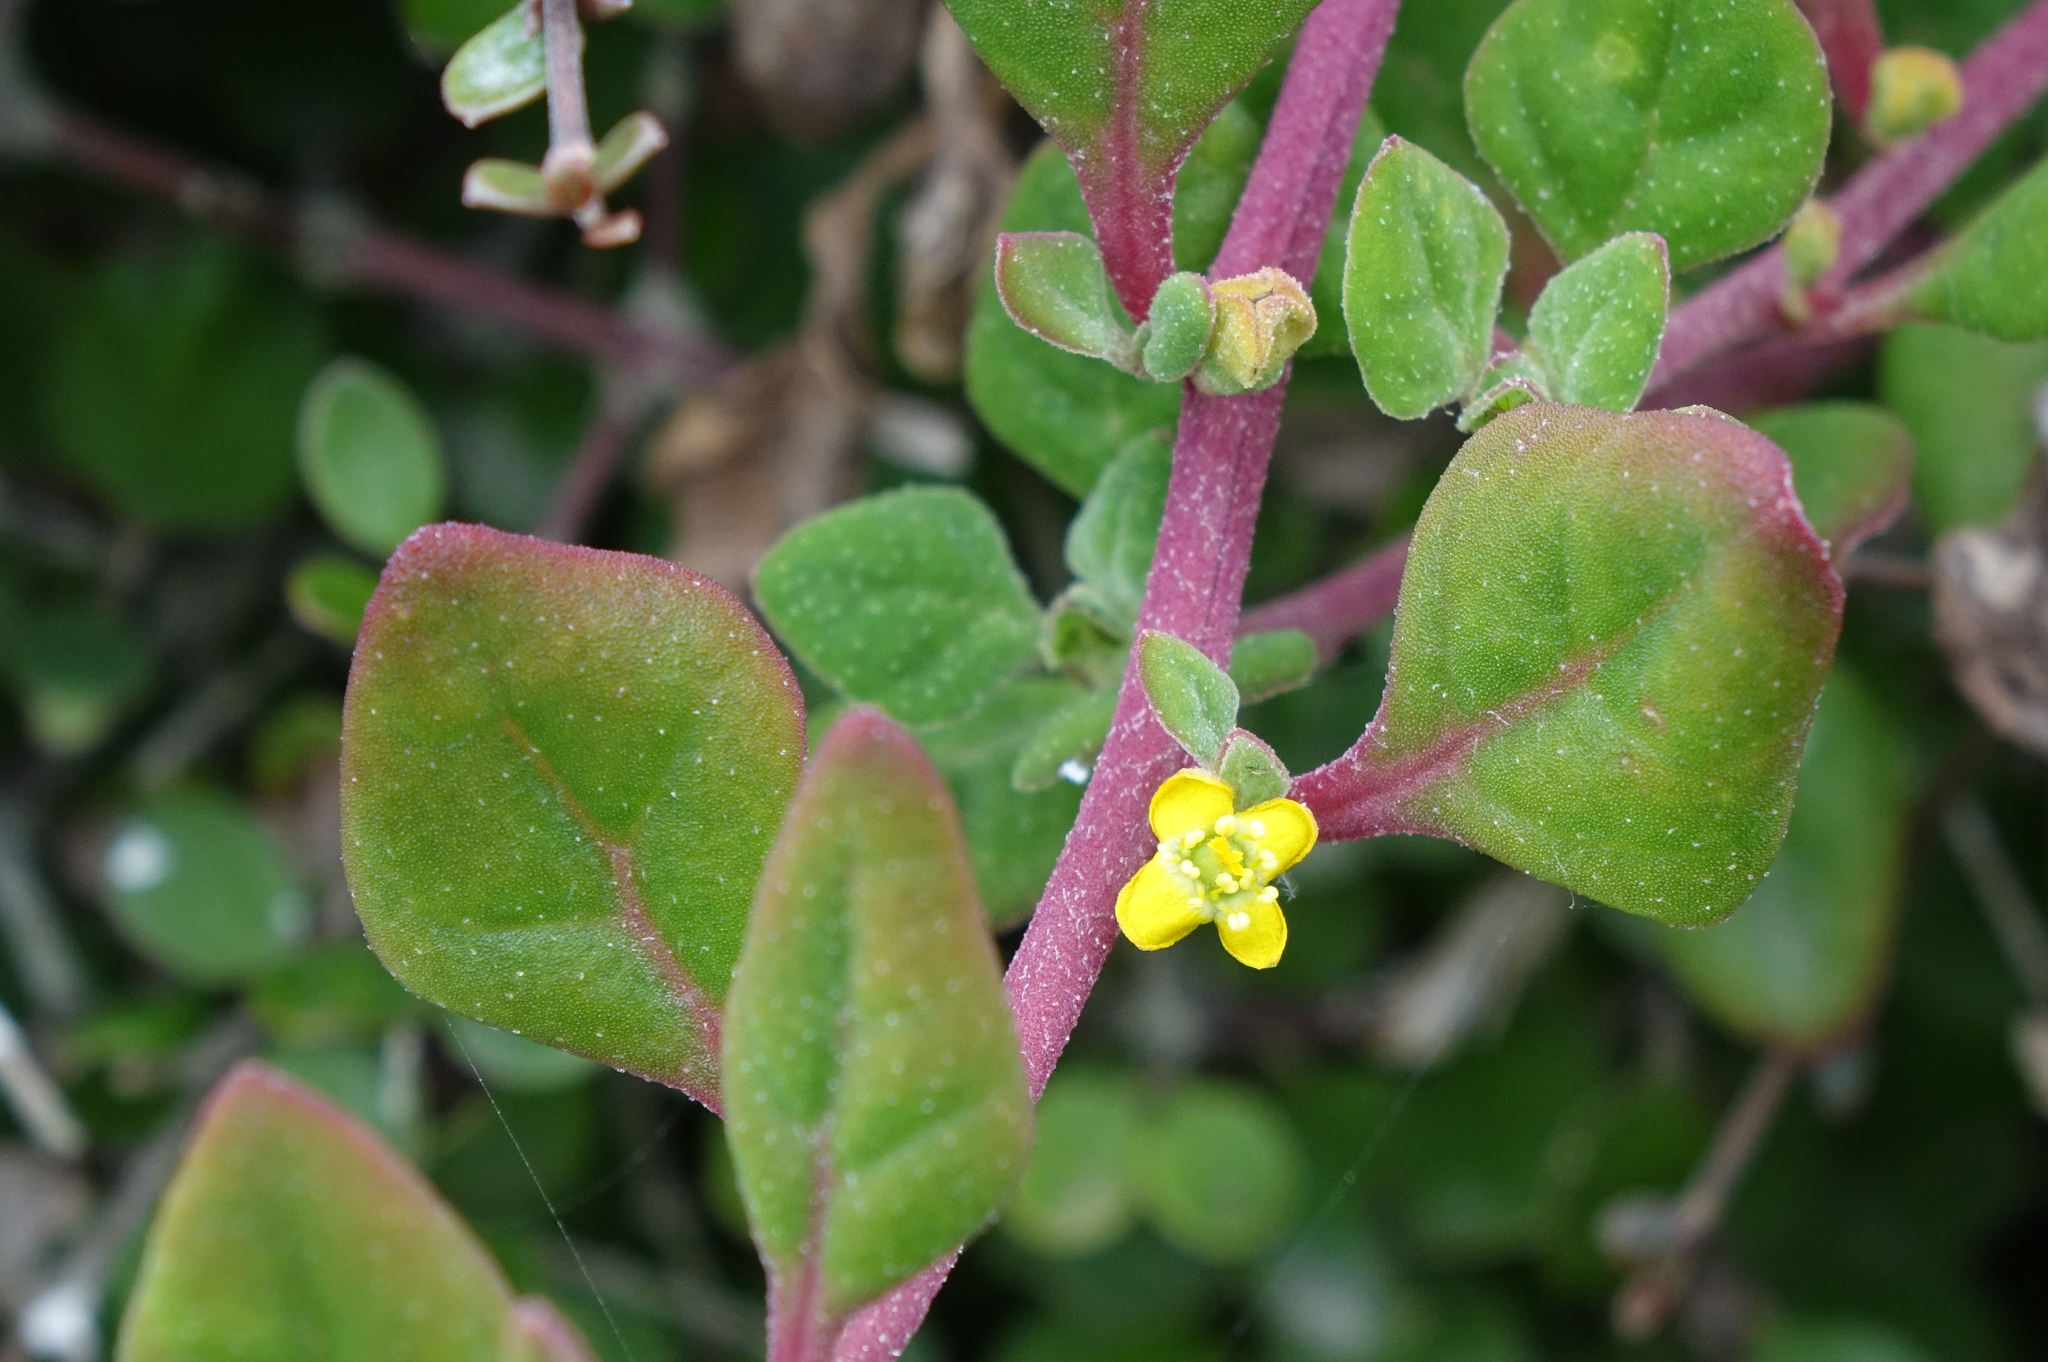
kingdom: Plantae
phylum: Tracheophyta
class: Magnoliopsida
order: Caryophyllales
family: Aizoaceae
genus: Tetragonia
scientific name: Tetragonia implexicoma
